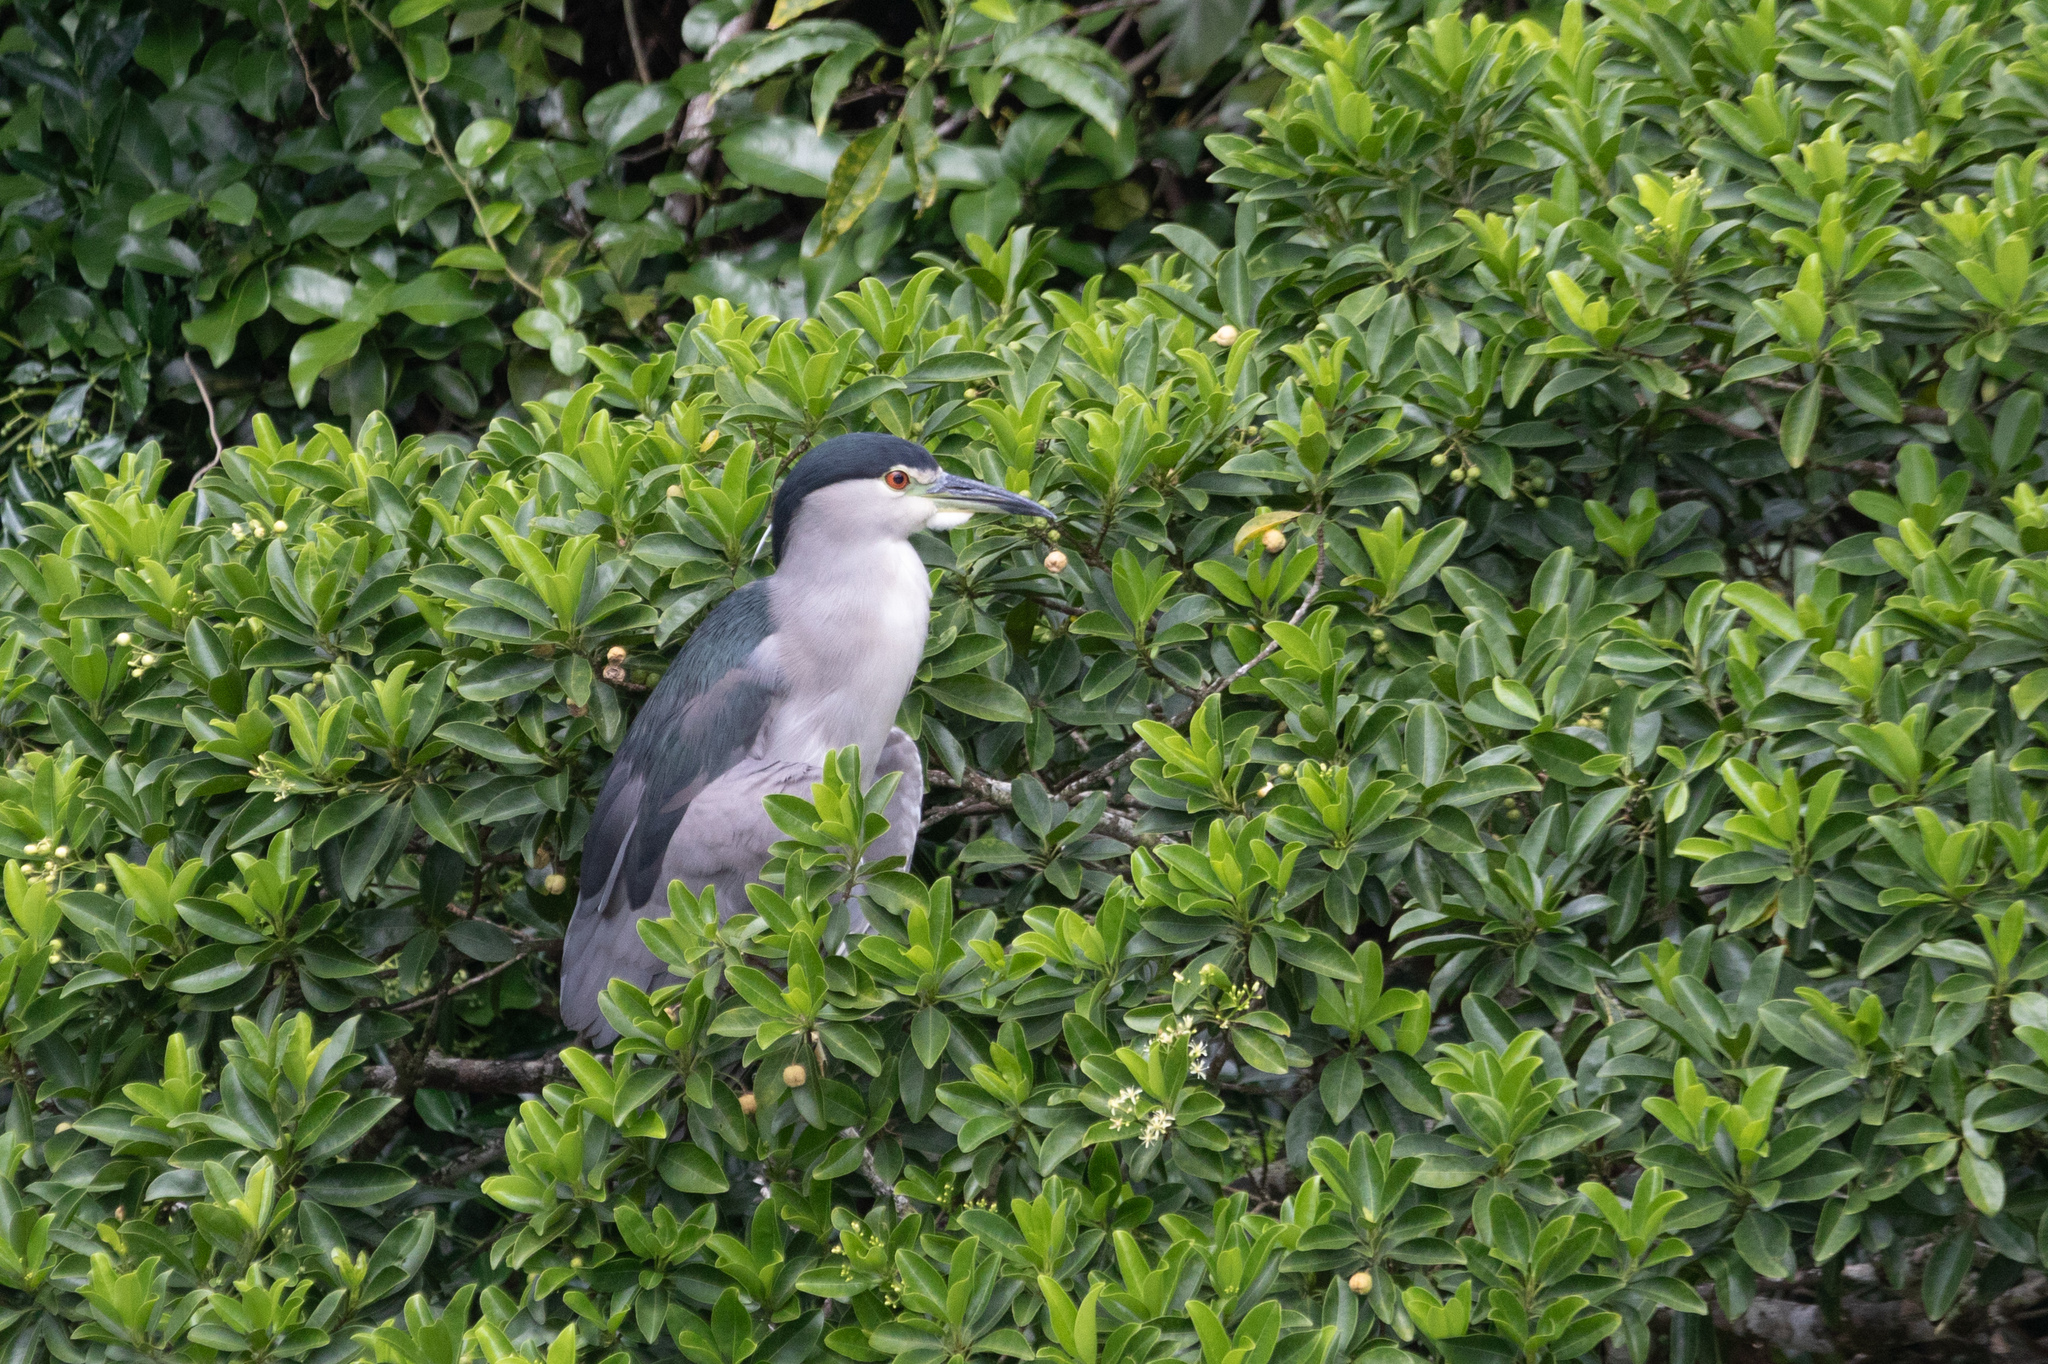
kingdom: Animalia
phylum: Chordata
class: Aves
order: Pelecaniformes
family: Ardeidae
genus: Nycticorax
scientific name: Nycticorax nycticorax
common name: Black-crowned night heron
